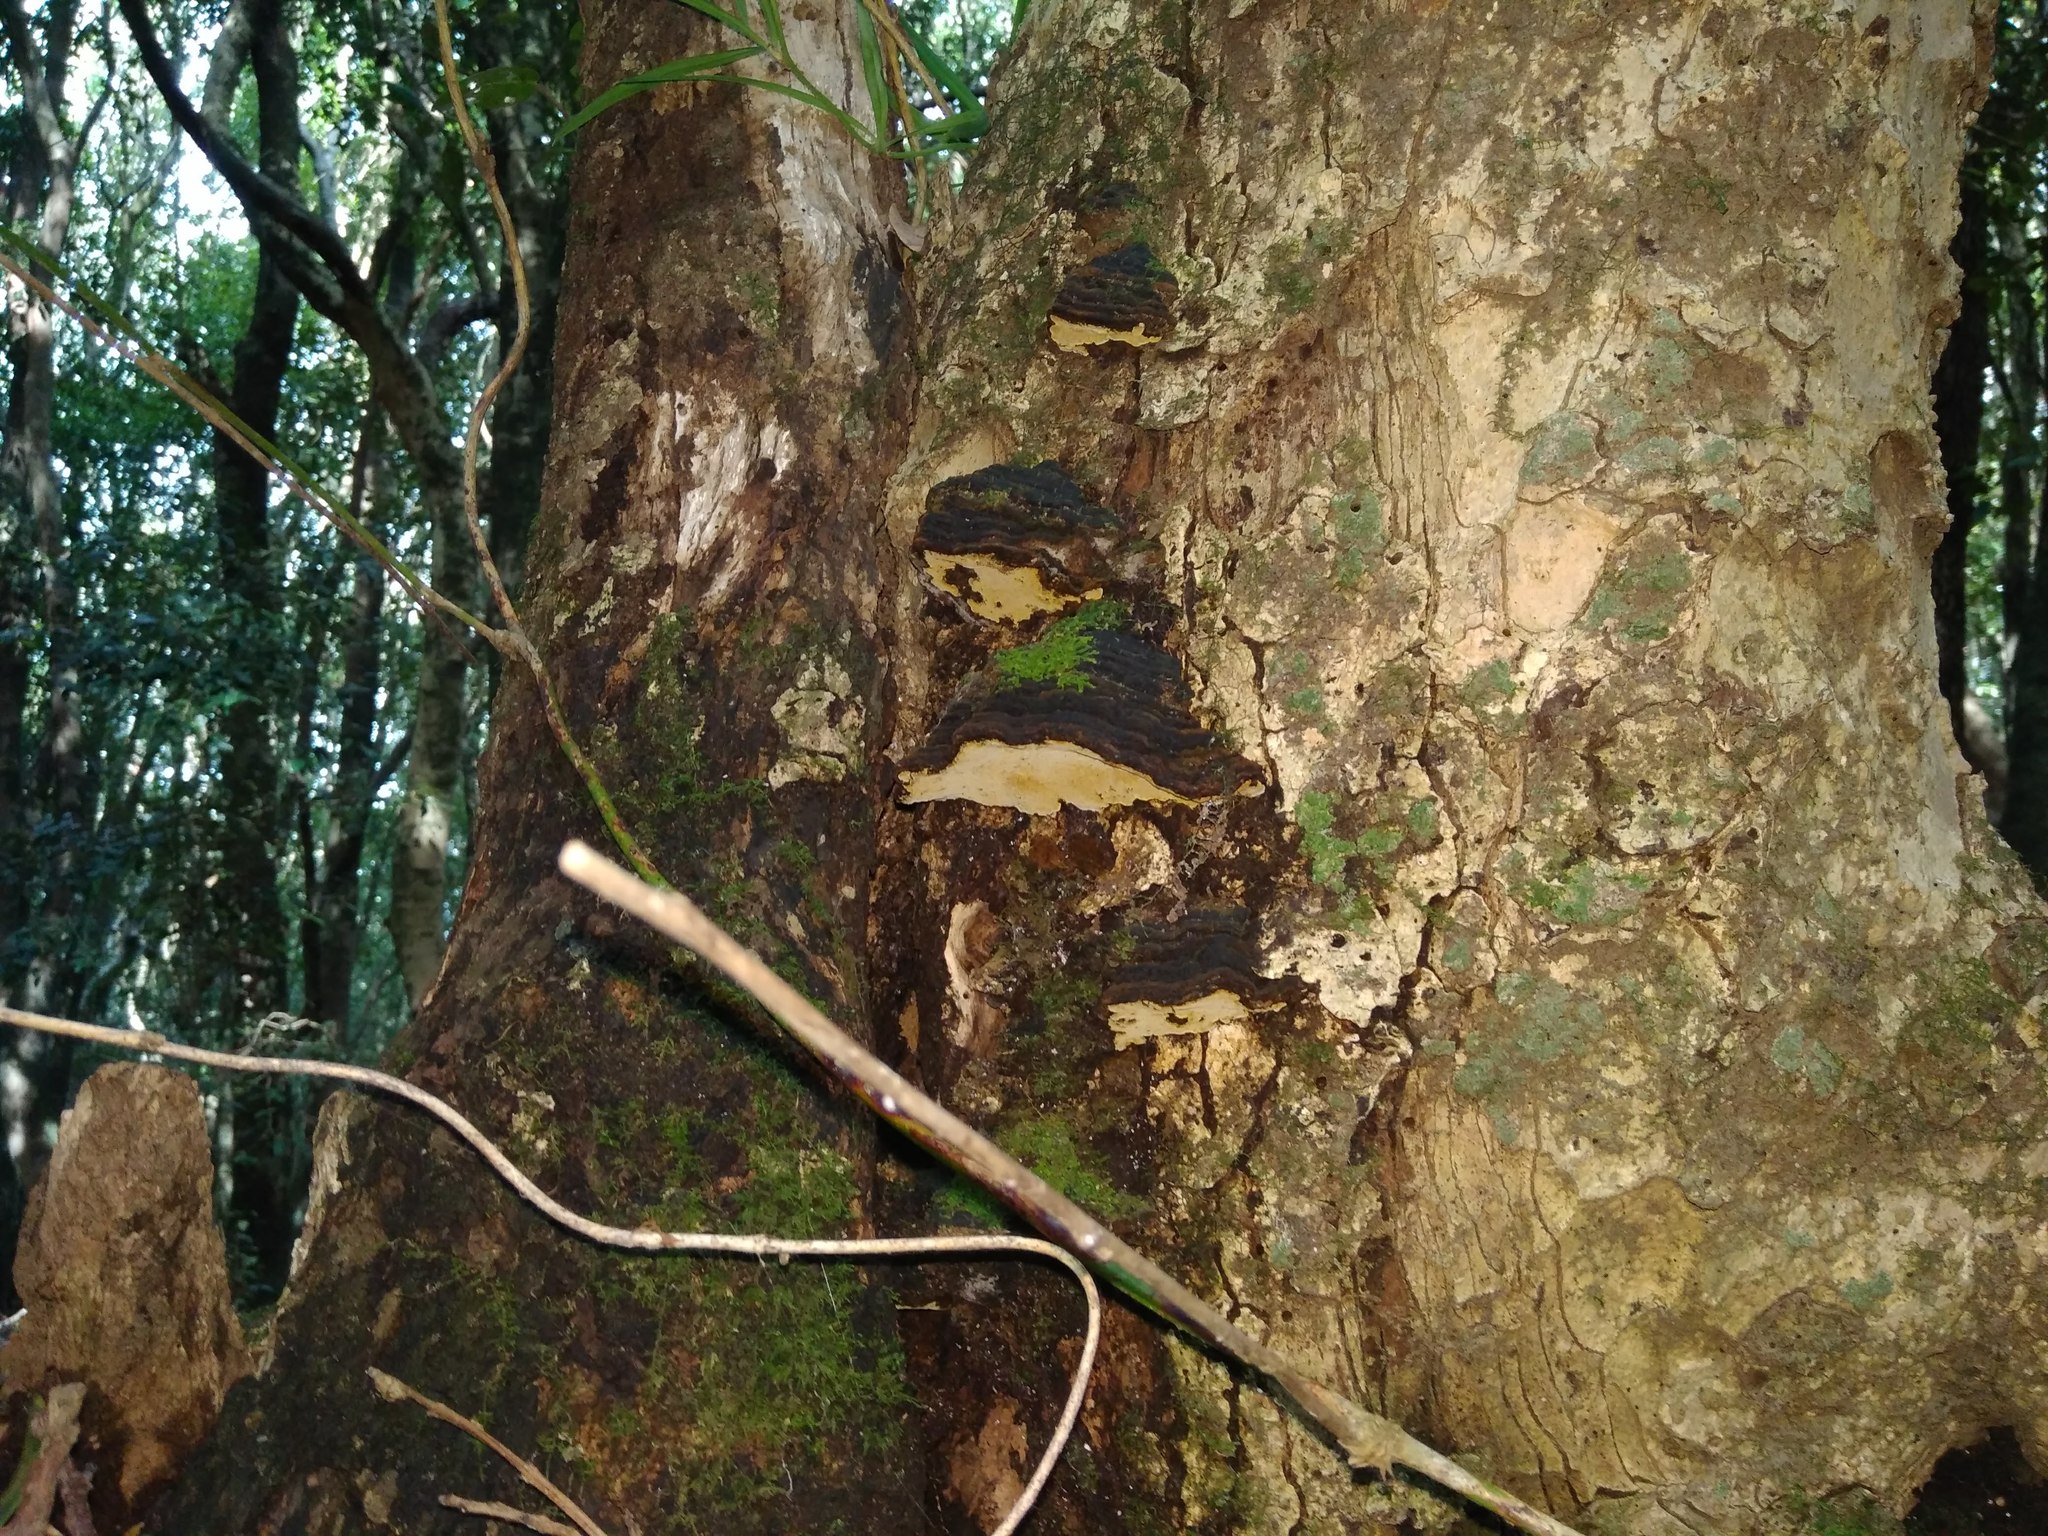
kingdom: Fungi
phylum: Basidiomycota
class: Agaricomycetes
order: Hymenochaetales
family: Hymenochaetaceae
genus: Phylloporia
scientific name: Phylloporia boldo
